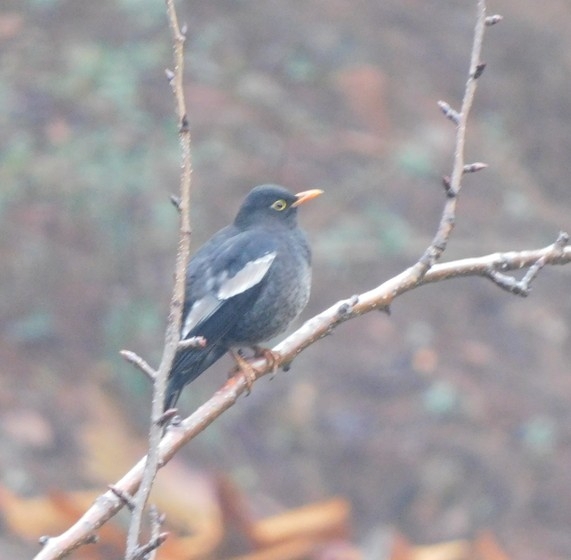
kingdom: Animalia
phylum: Chordata
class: Aves
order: Passeriformes
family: Turdidae
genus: Turdus
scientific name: Turdus boulboul
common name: Grey-winged blackbird
